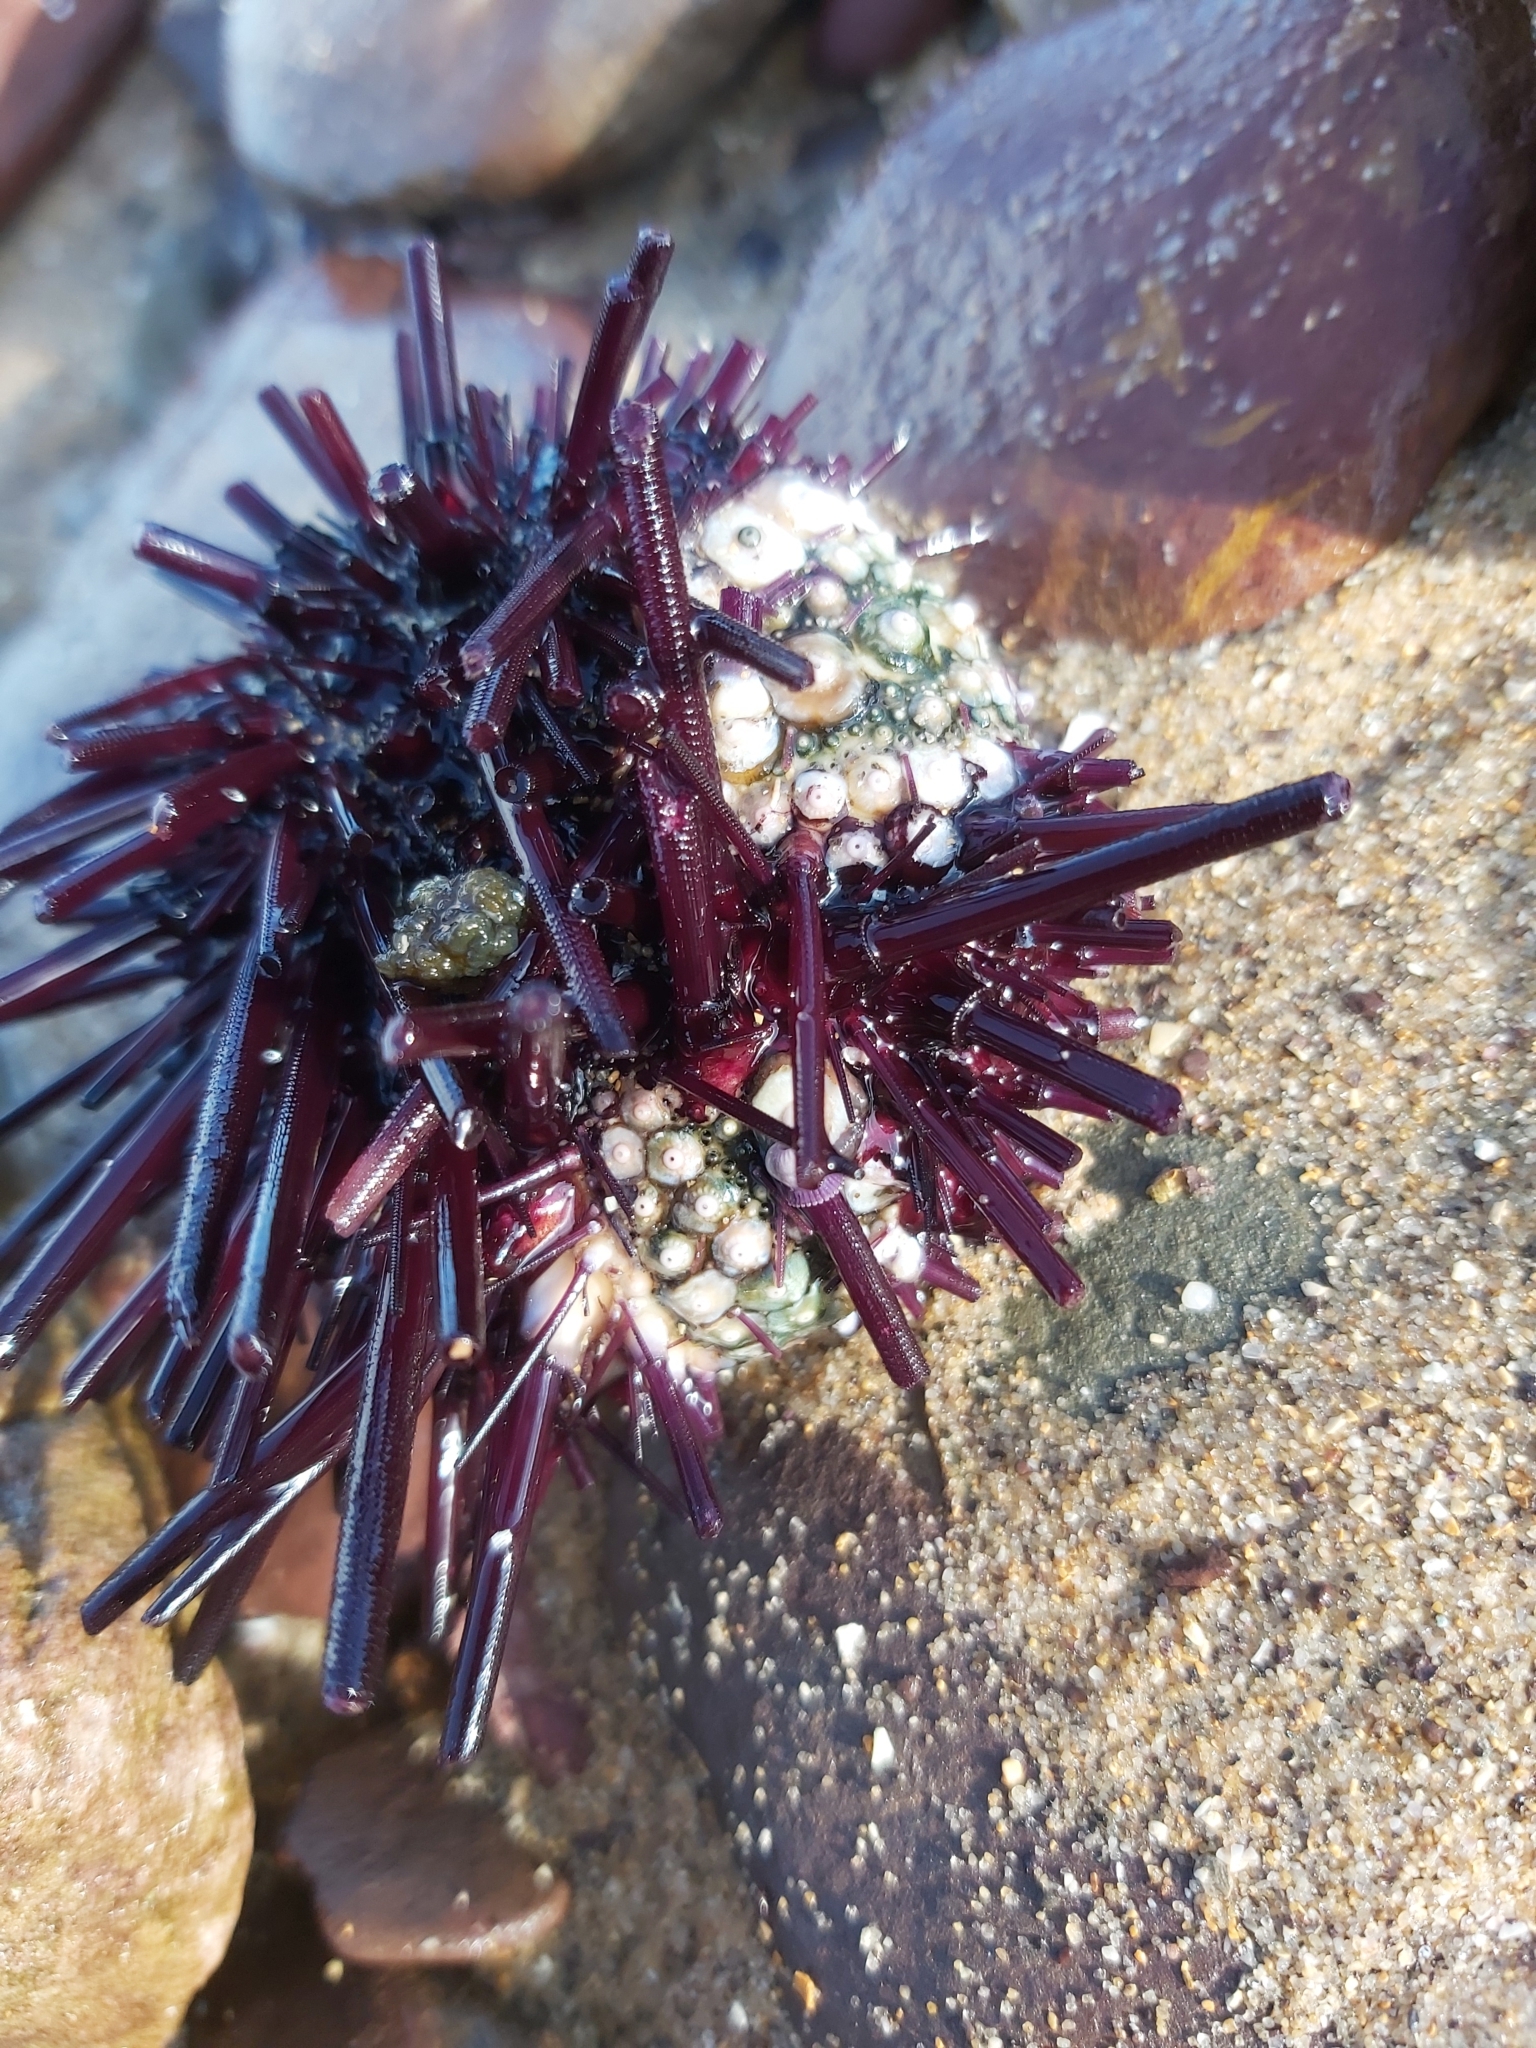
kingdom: Animalia
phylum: Echinodermata
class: Echinoidea
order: Diadematoida
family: Diadematidae
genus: Centrostephanus
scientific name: Centrostephanus rodgersii
